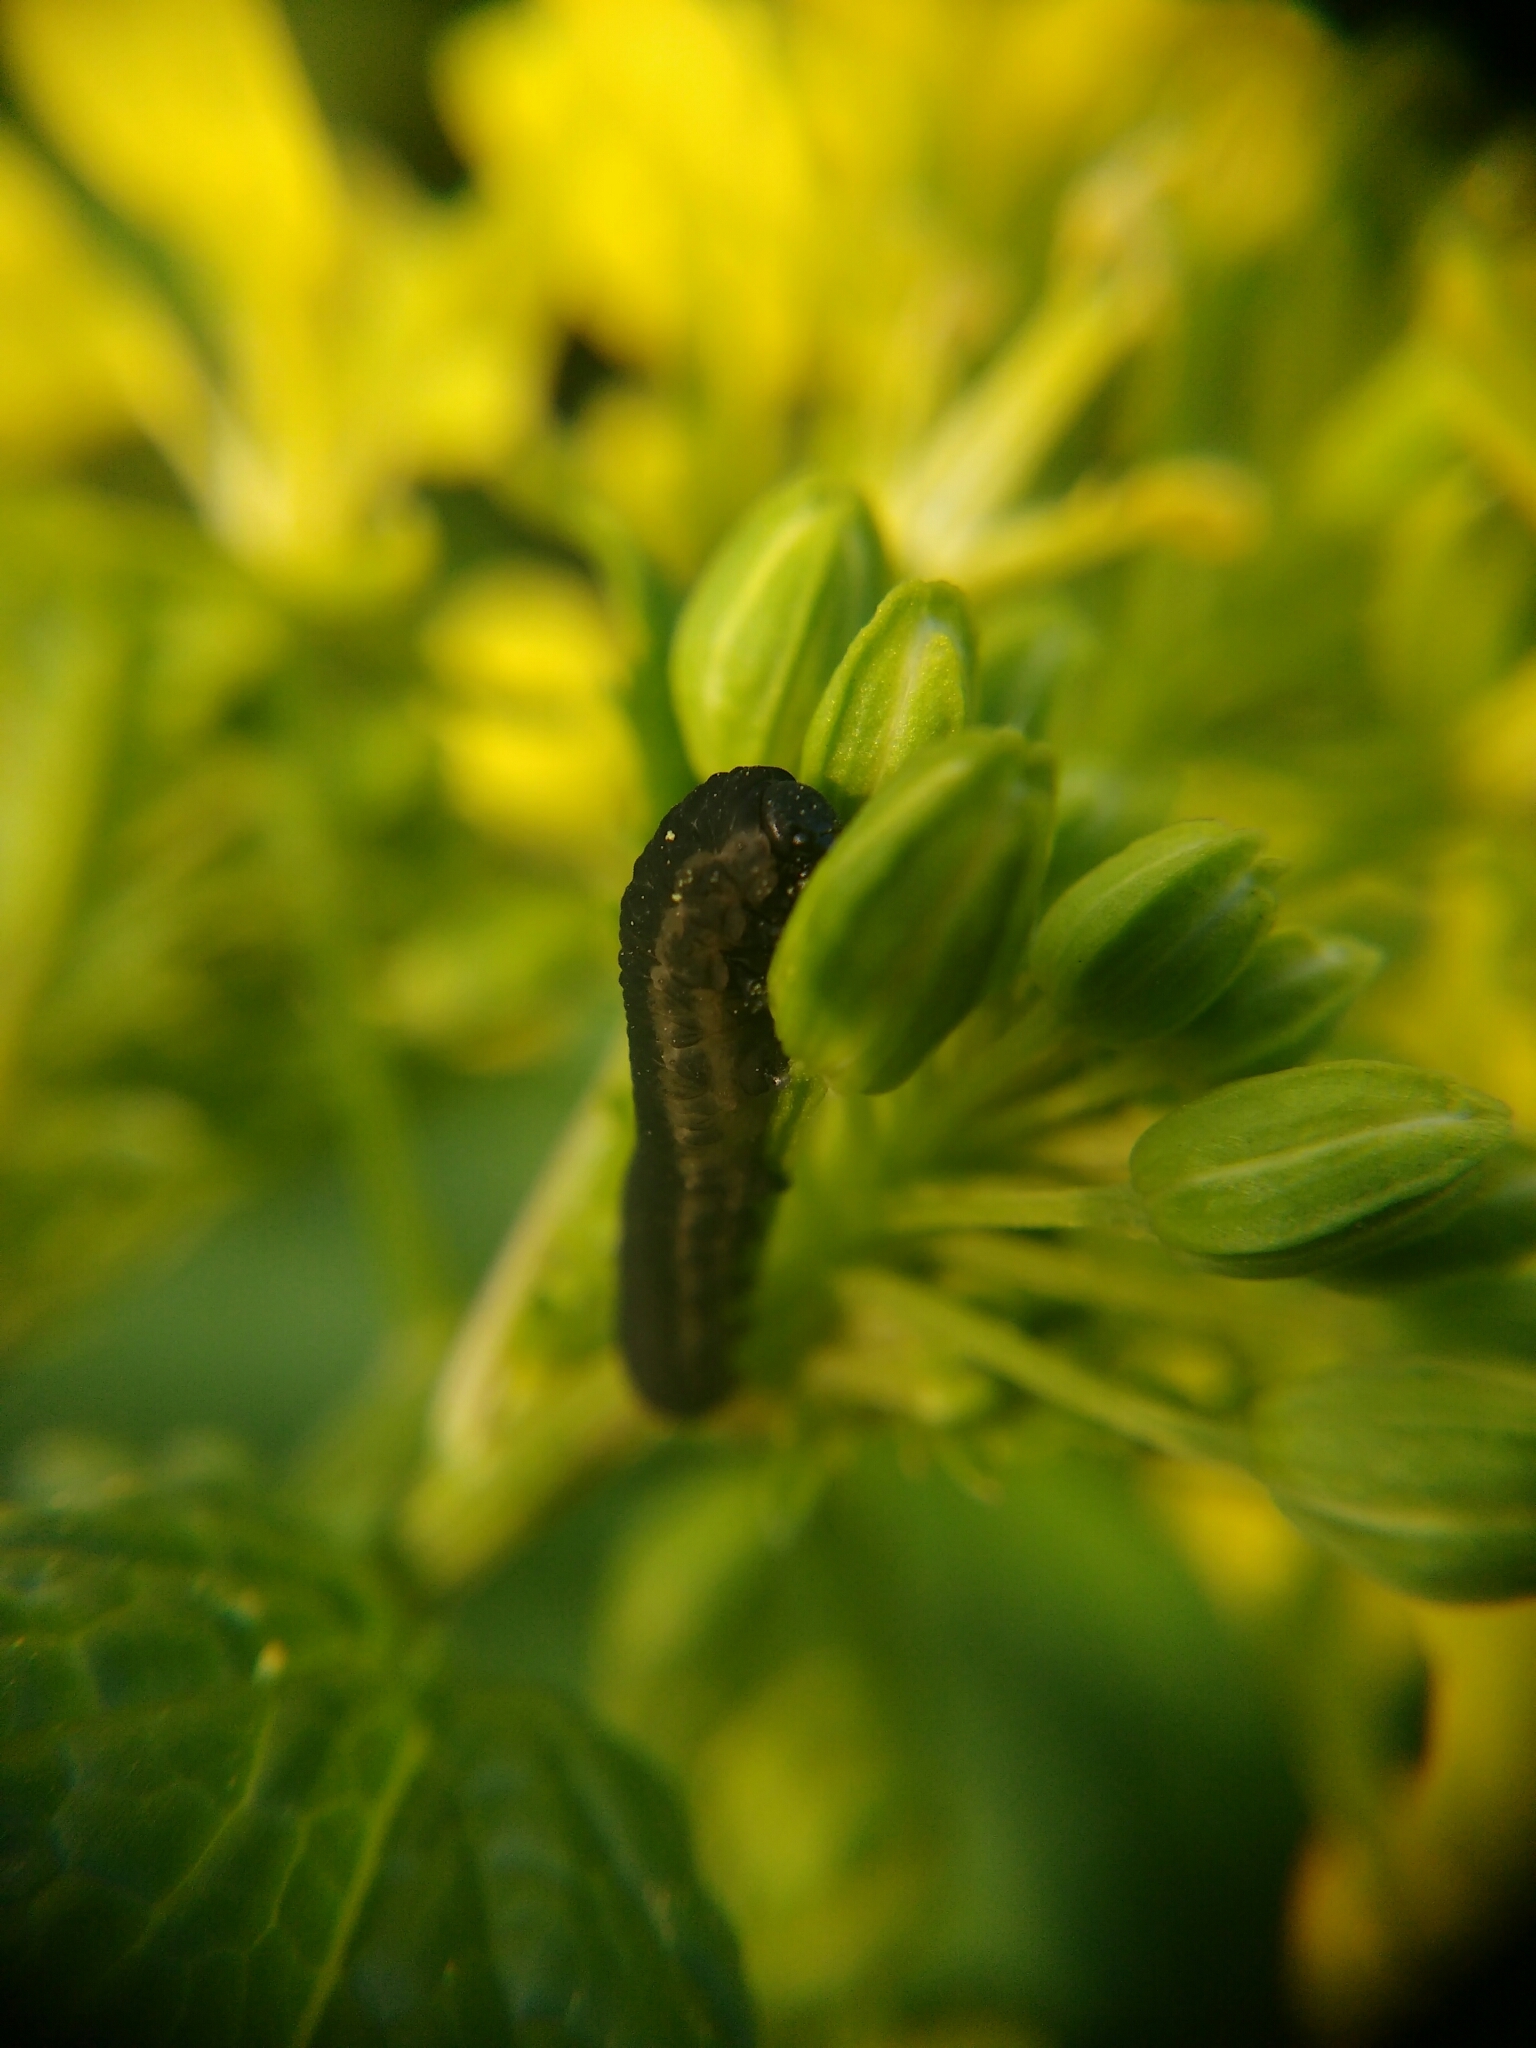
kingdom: Animalia
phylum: Arthropoda
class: Insecta
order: Hymenoptera
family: Tenthredinidae
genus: Athalia
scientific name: Athalia rosae
